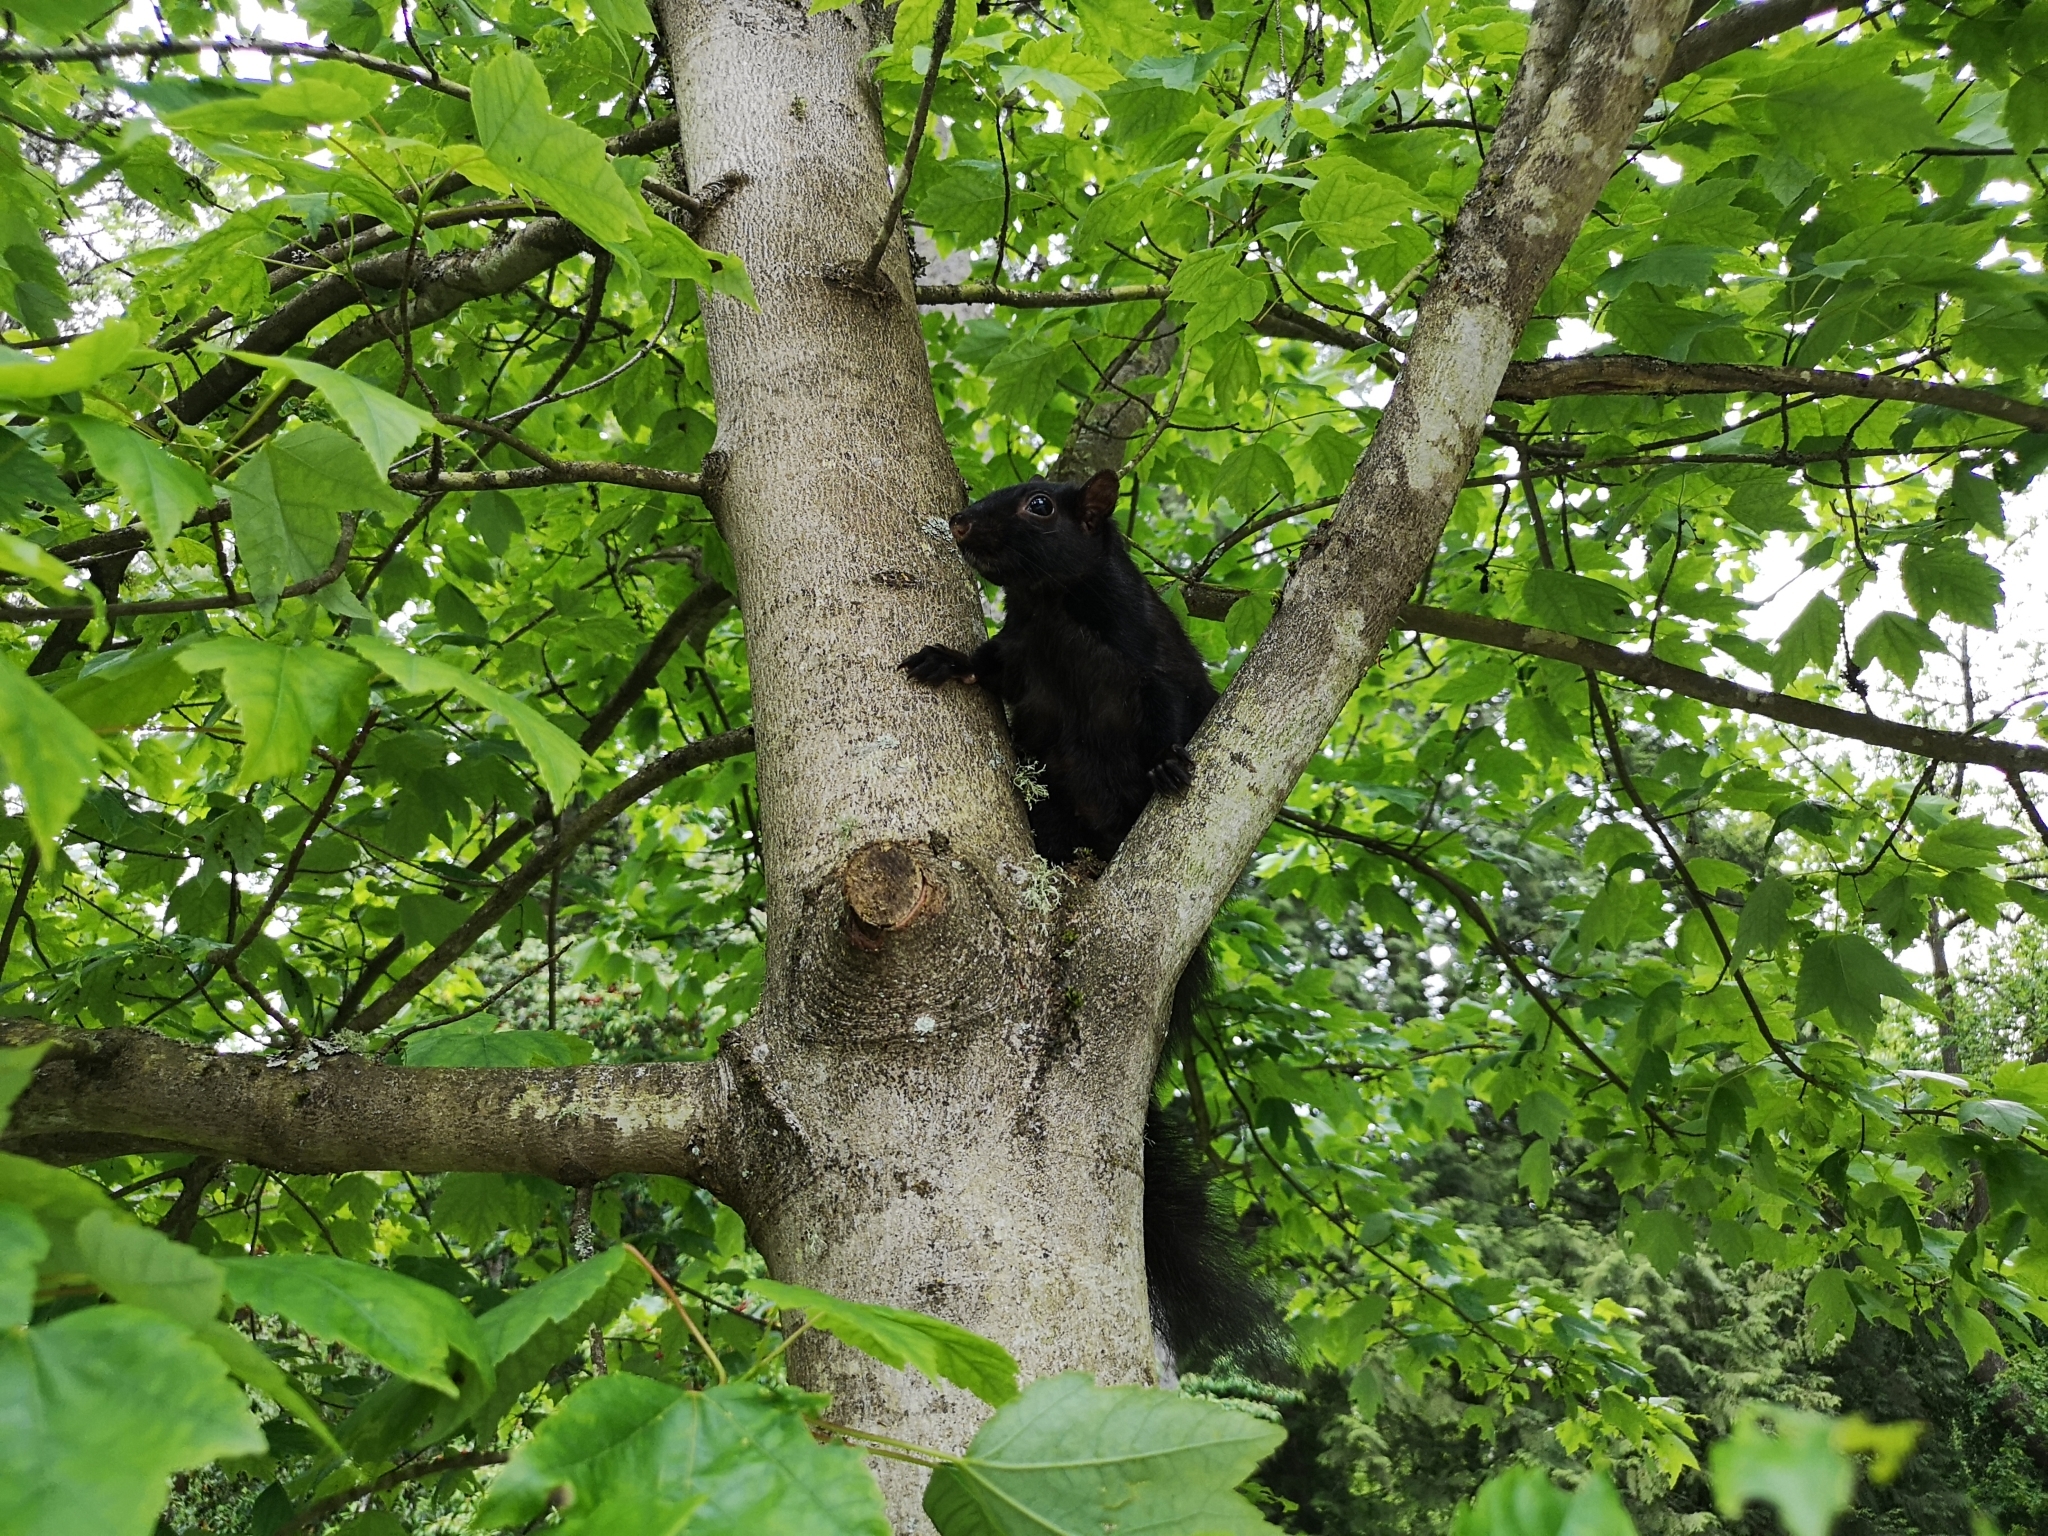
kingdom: Animalia
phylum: Chordata
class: Mammalia
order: Rodentia
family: Sciuridae
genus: Sciurus
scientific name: Sciurus carolinensis
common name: Eastern gray squirrel
